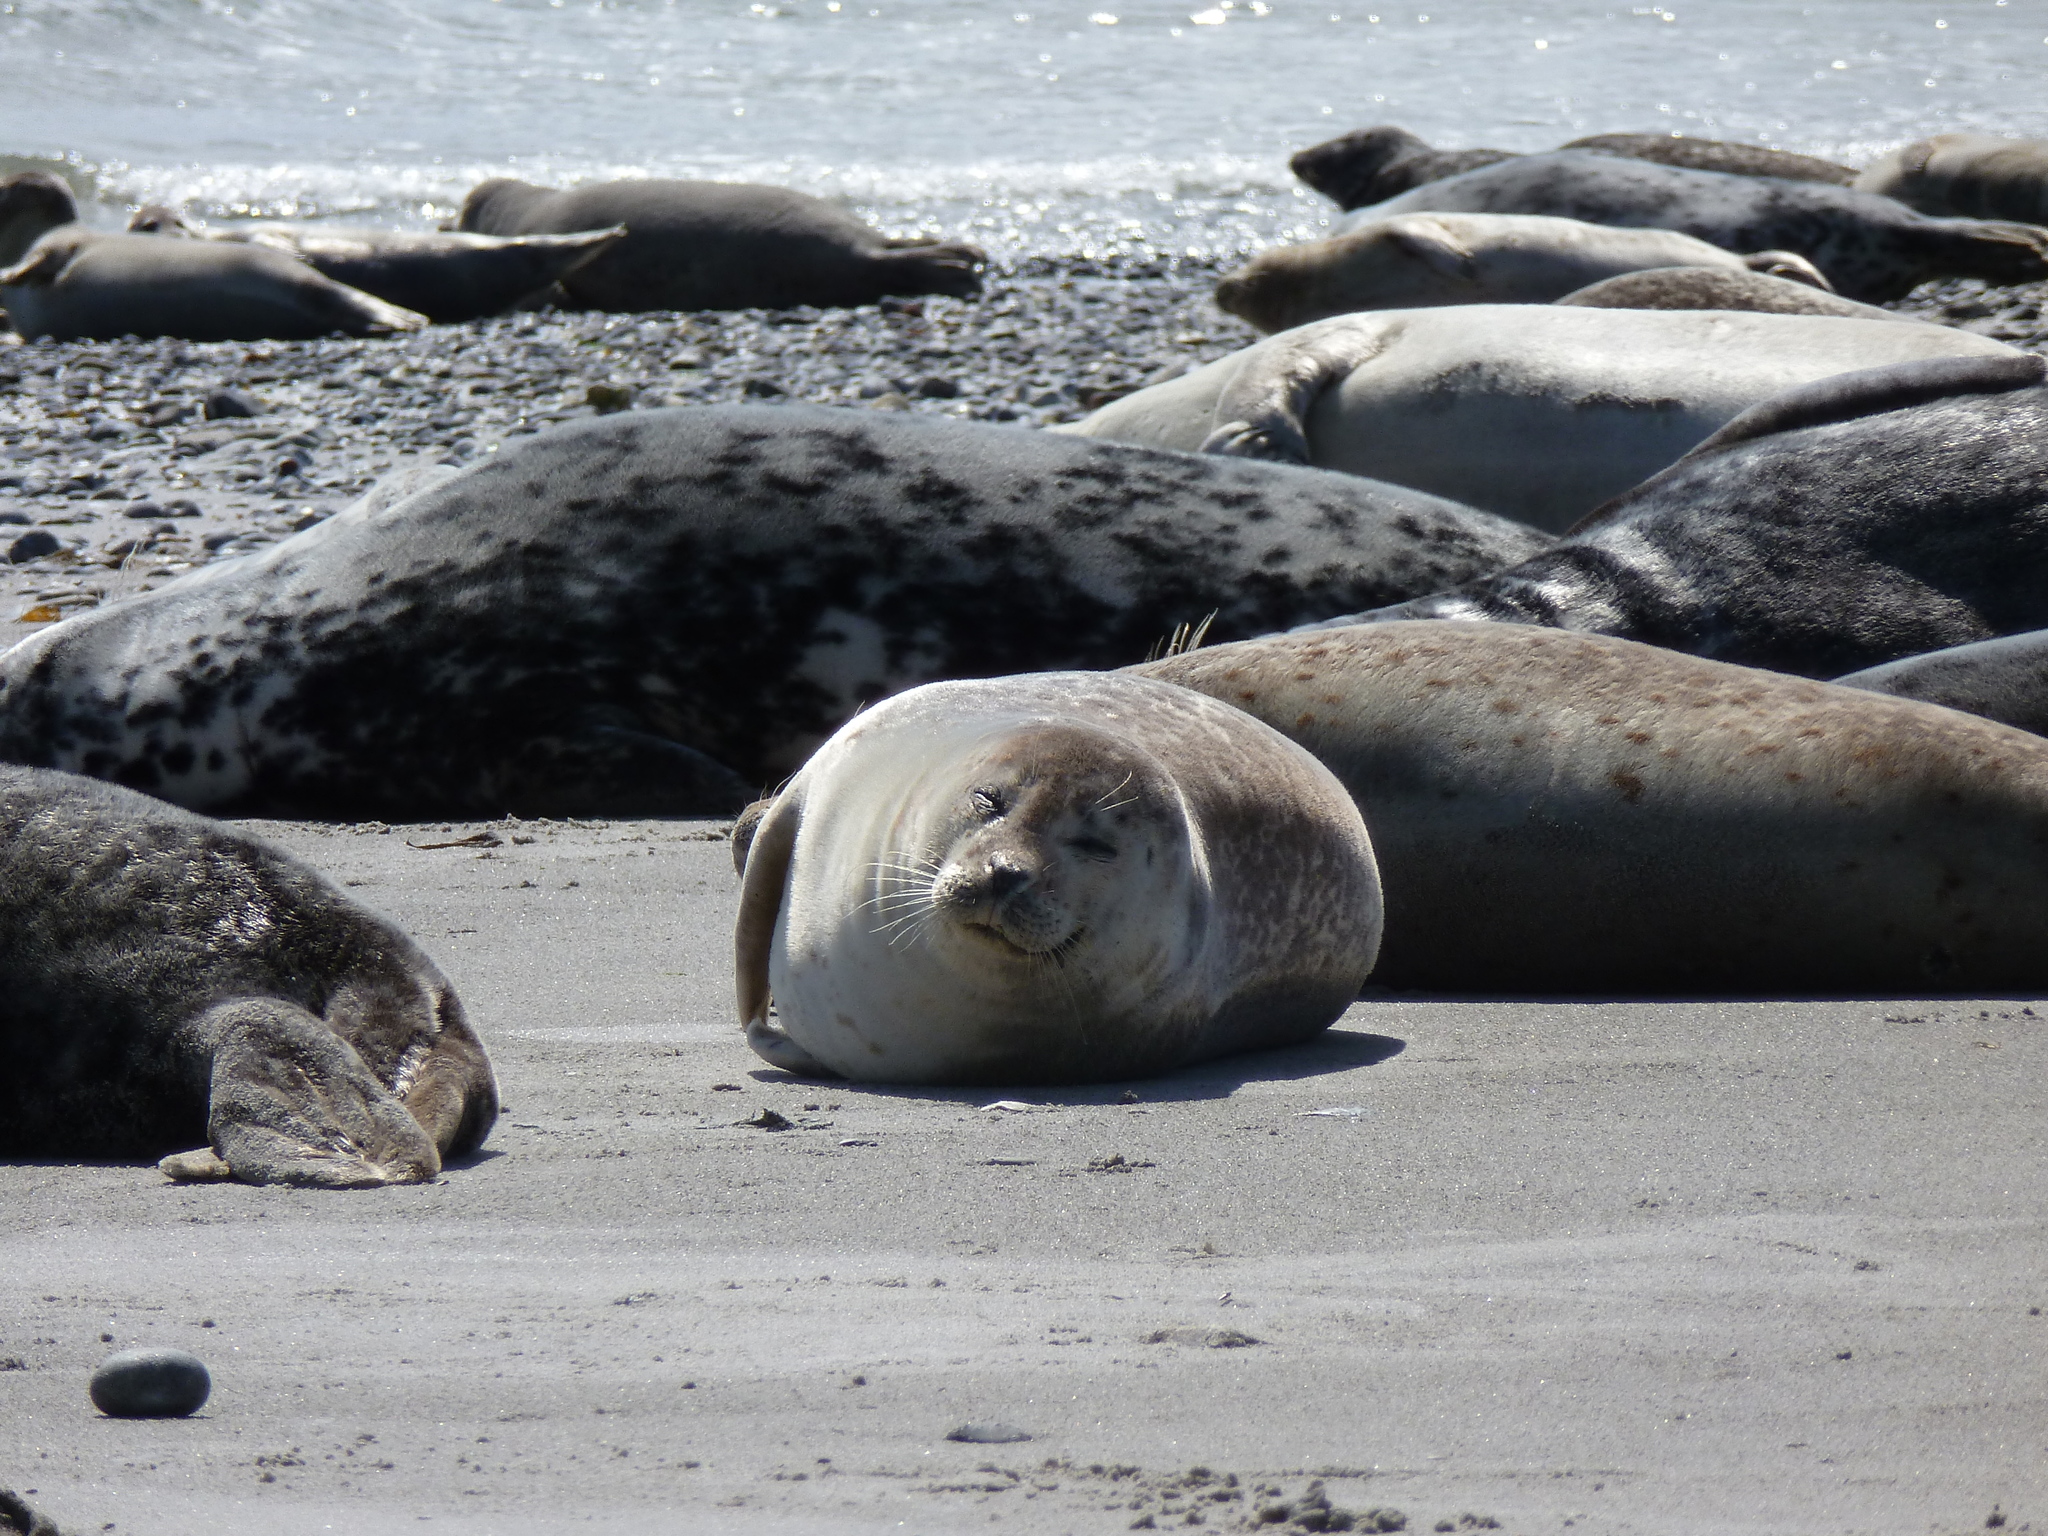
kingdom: Animalia
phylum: Chordata
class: Mammalia
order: Carnivora
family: Phocidae
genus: Phoca
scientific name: Phoca vitulina
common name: Harbor seal
